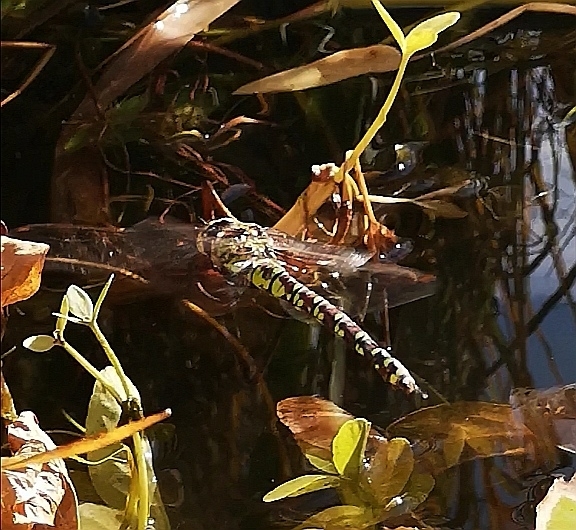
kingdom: Animalia
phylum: Arthropoda
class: Insecta
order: Odonata
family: Aeshnidae
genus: Aeshna
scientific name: Aeshna cyanea
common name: Southern hawker
